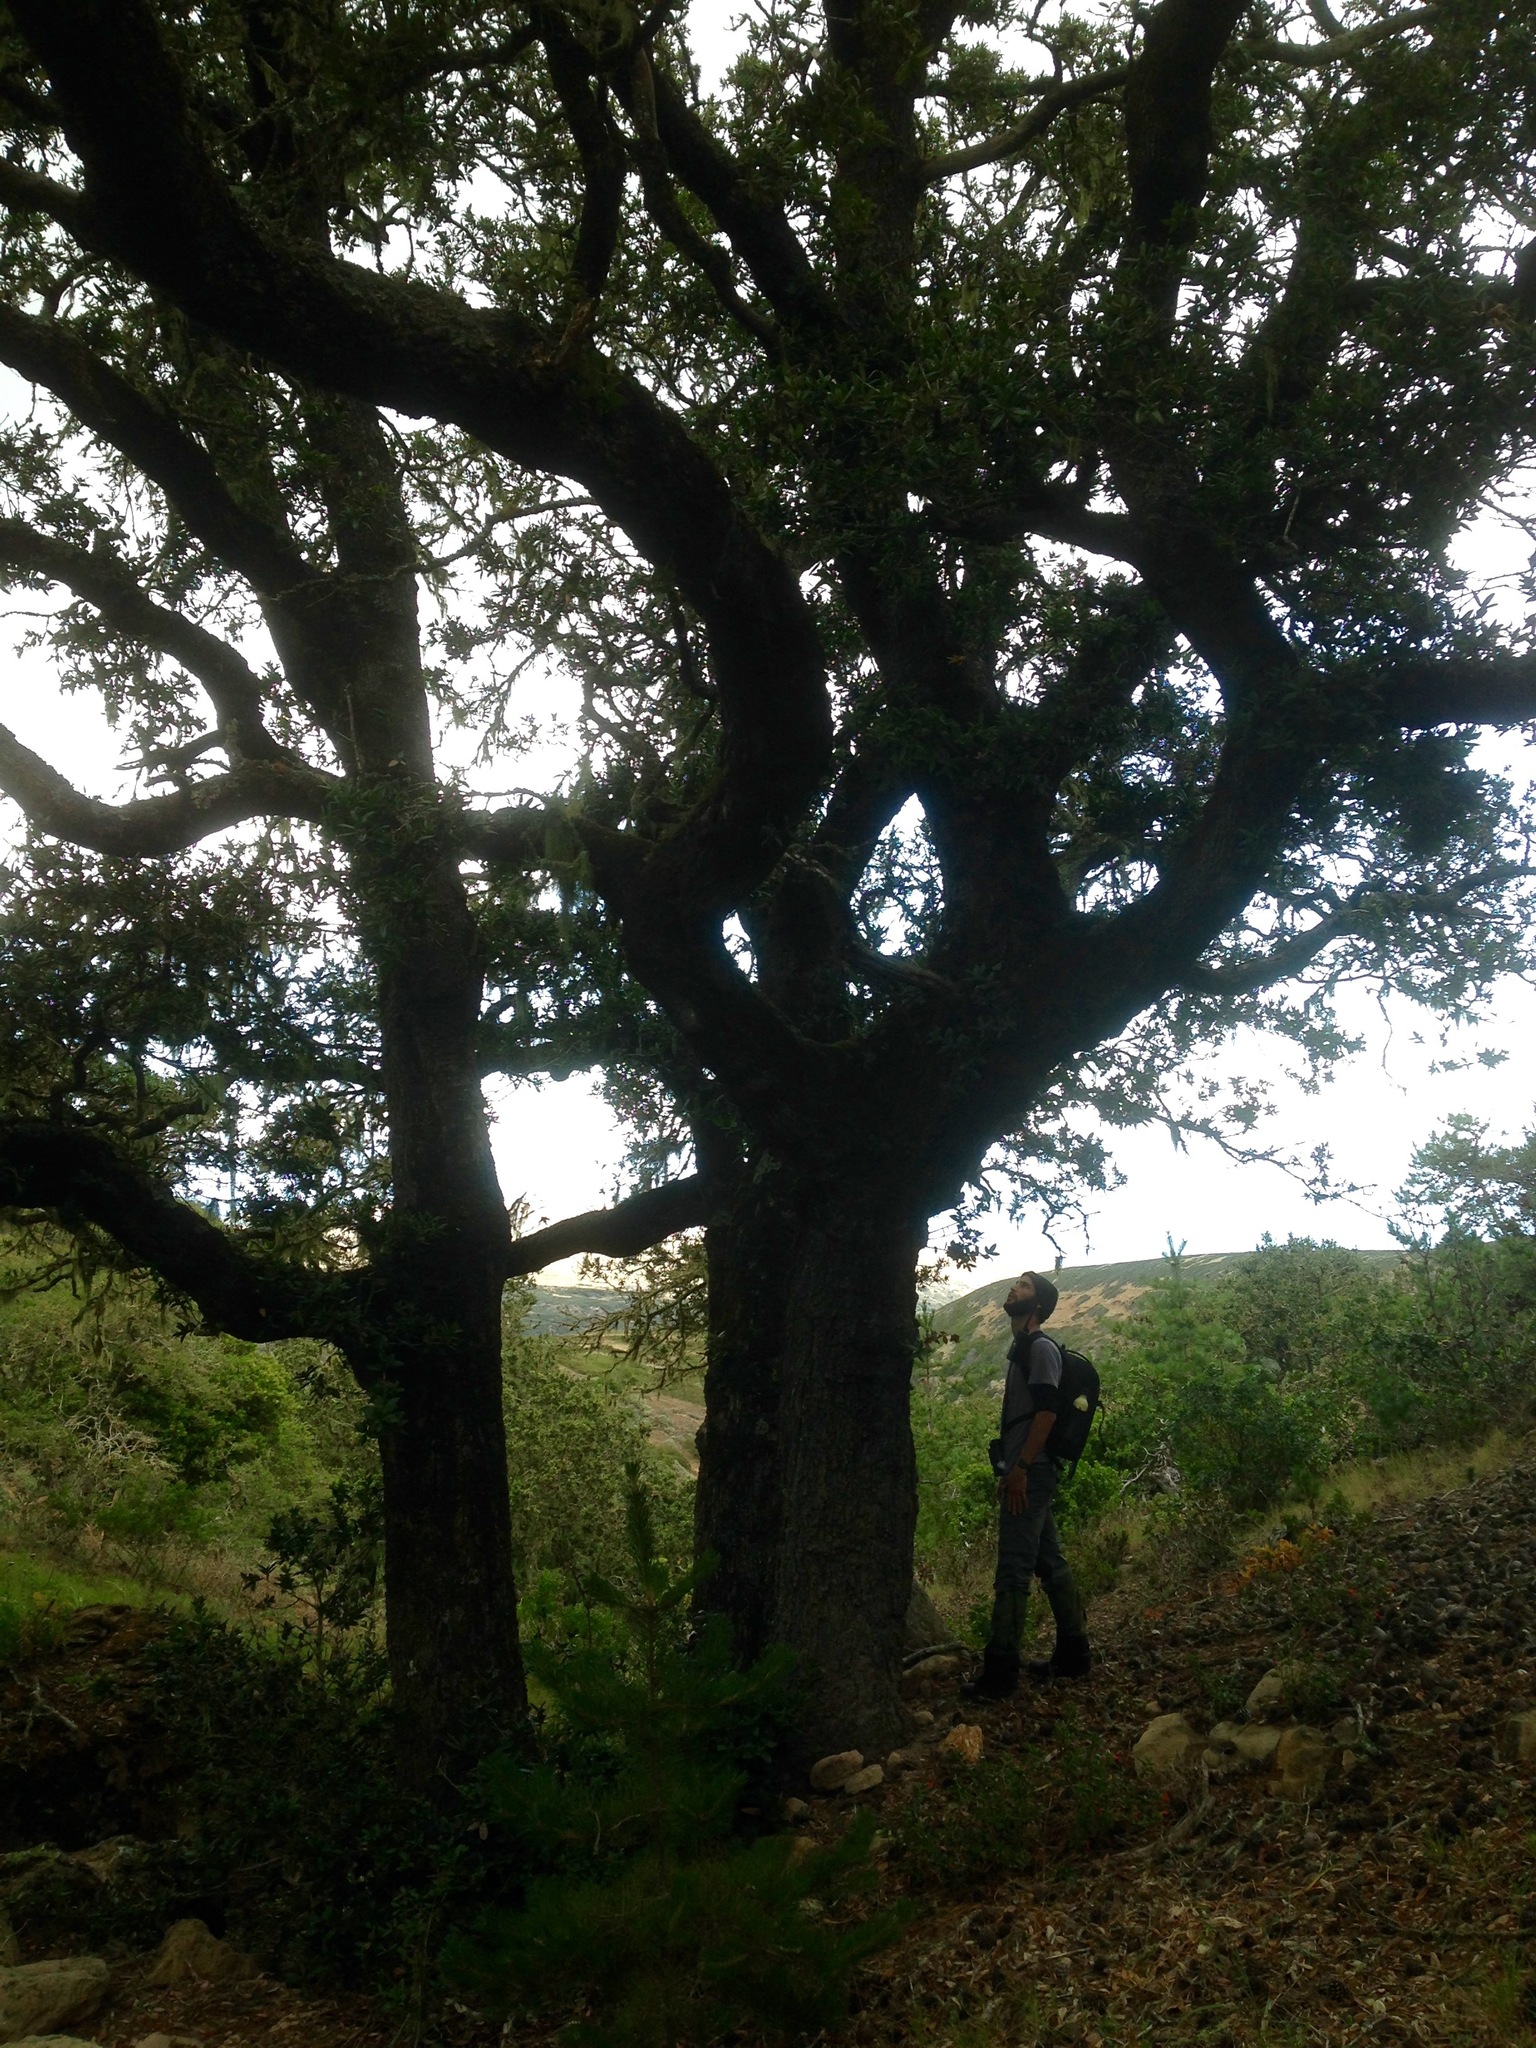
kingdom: Plantae
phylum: Tracheophyta
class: Magnoliopsida
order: Fagales
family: Fagaceae
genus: Quercus
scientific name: Quercus tomentella
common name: Island oak
